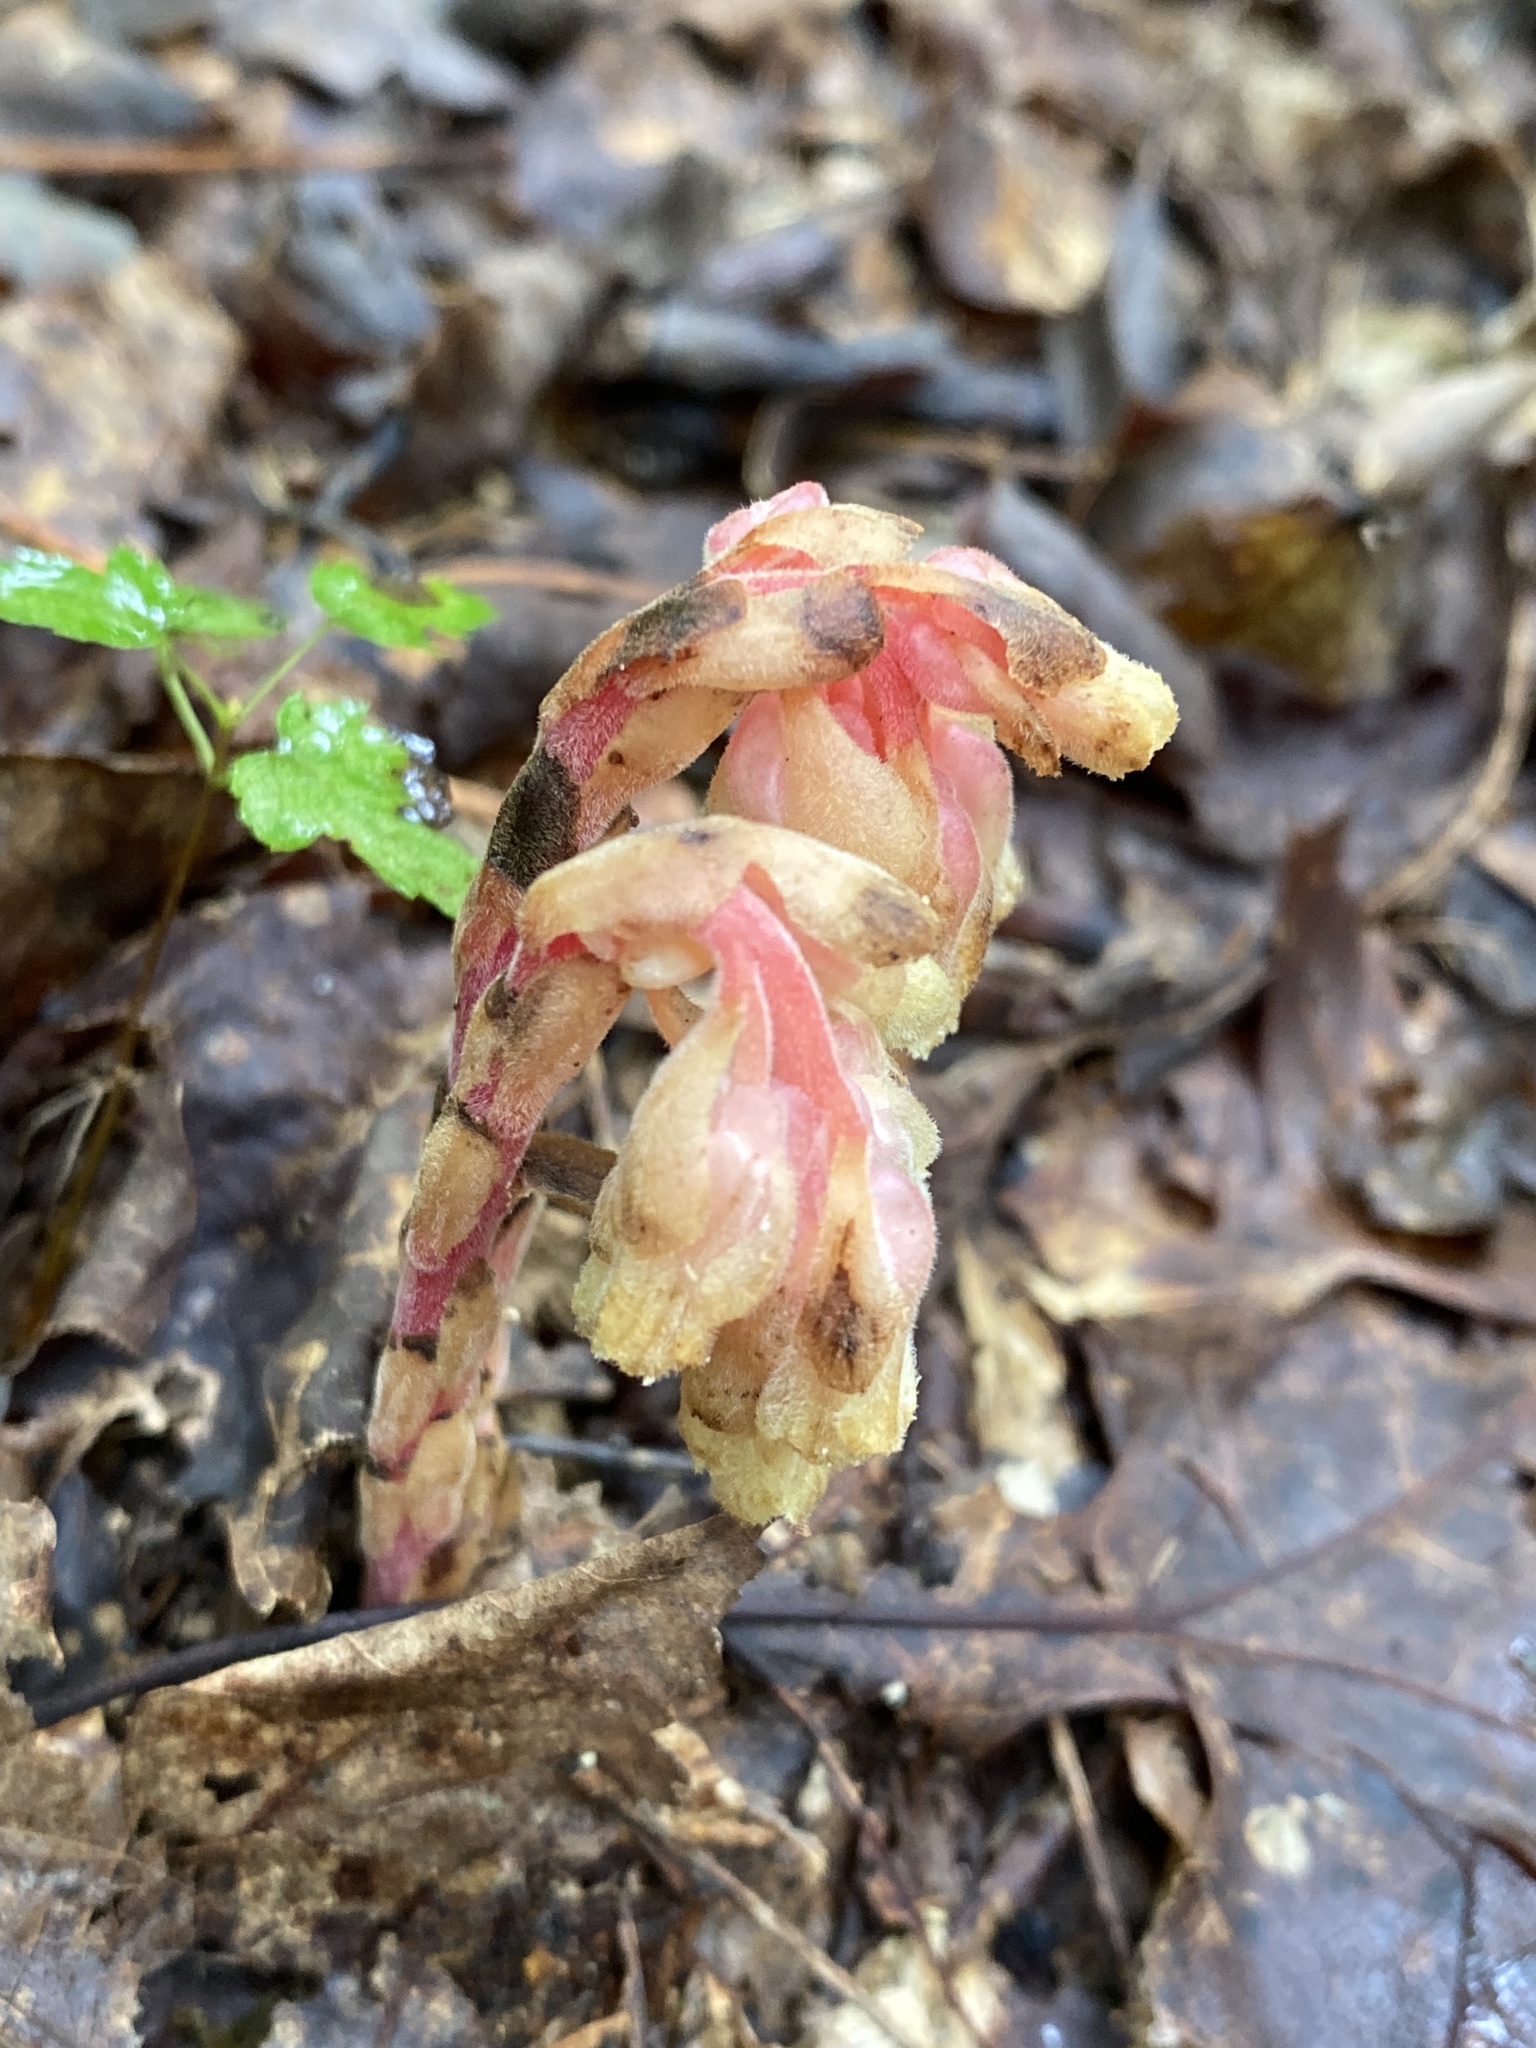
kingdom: Plantae
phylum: Tracheophyta
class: Magnoliopsida
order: Ericales
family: Ericaceae
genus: Hypopitys
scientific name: Hypopitys monotropa
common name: Yellow bird's-nest
